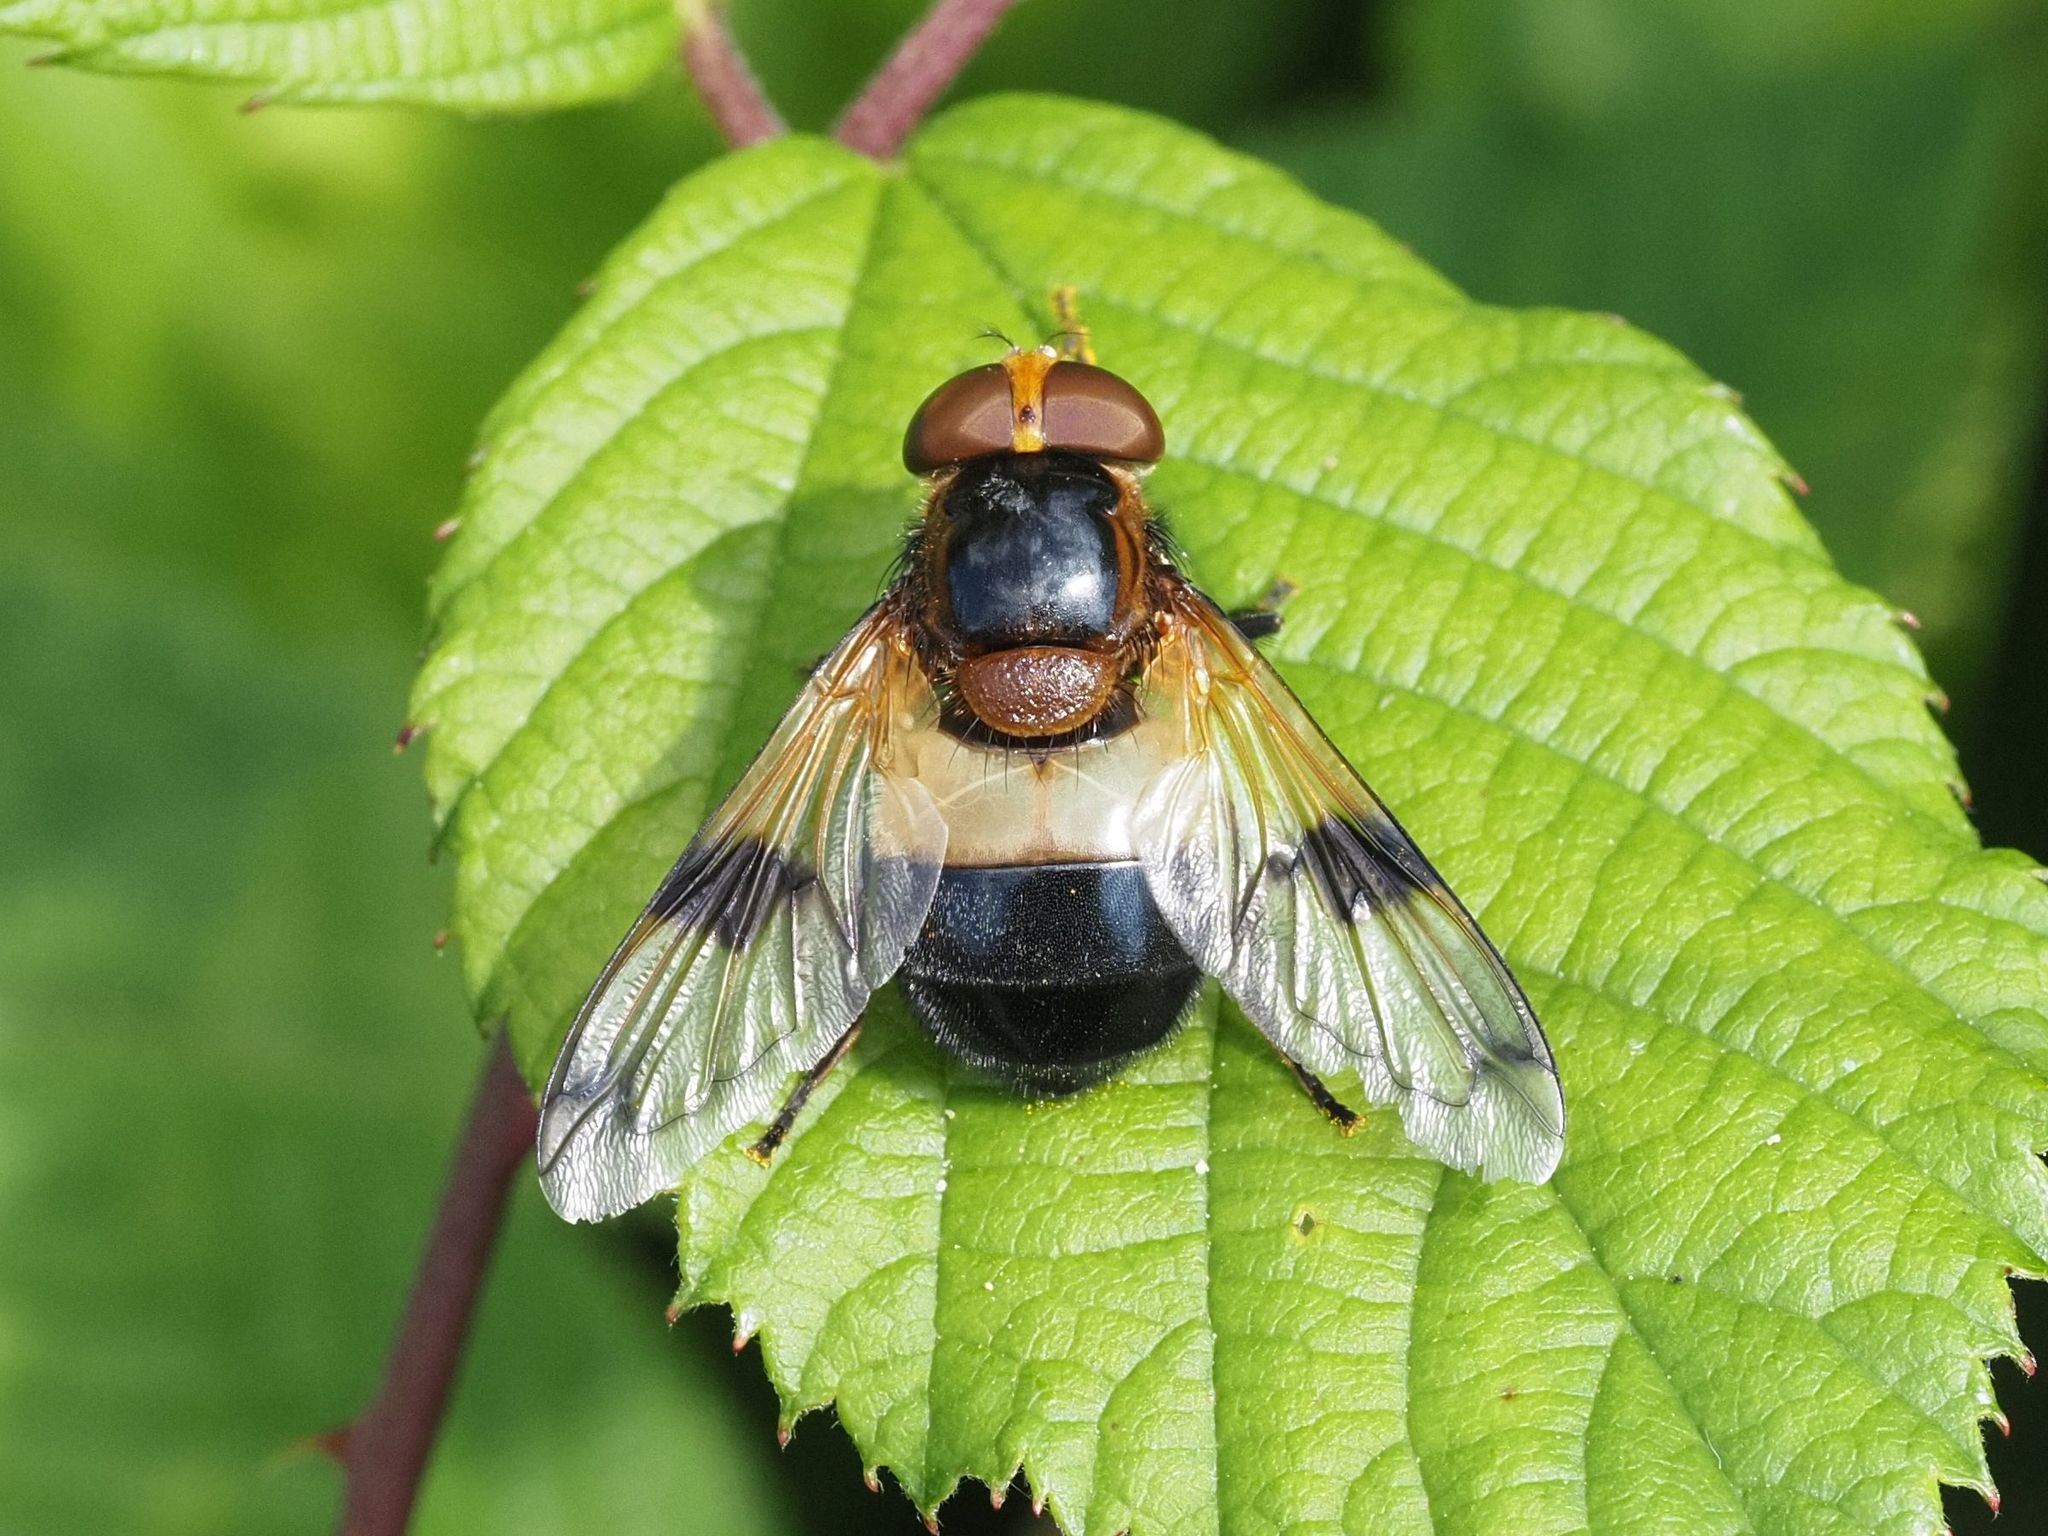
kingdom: Animalia
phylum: Arthropoda
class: Insecta
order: Diptera
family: Syrphidae
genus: Volucella
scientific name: Volucella pellucens
